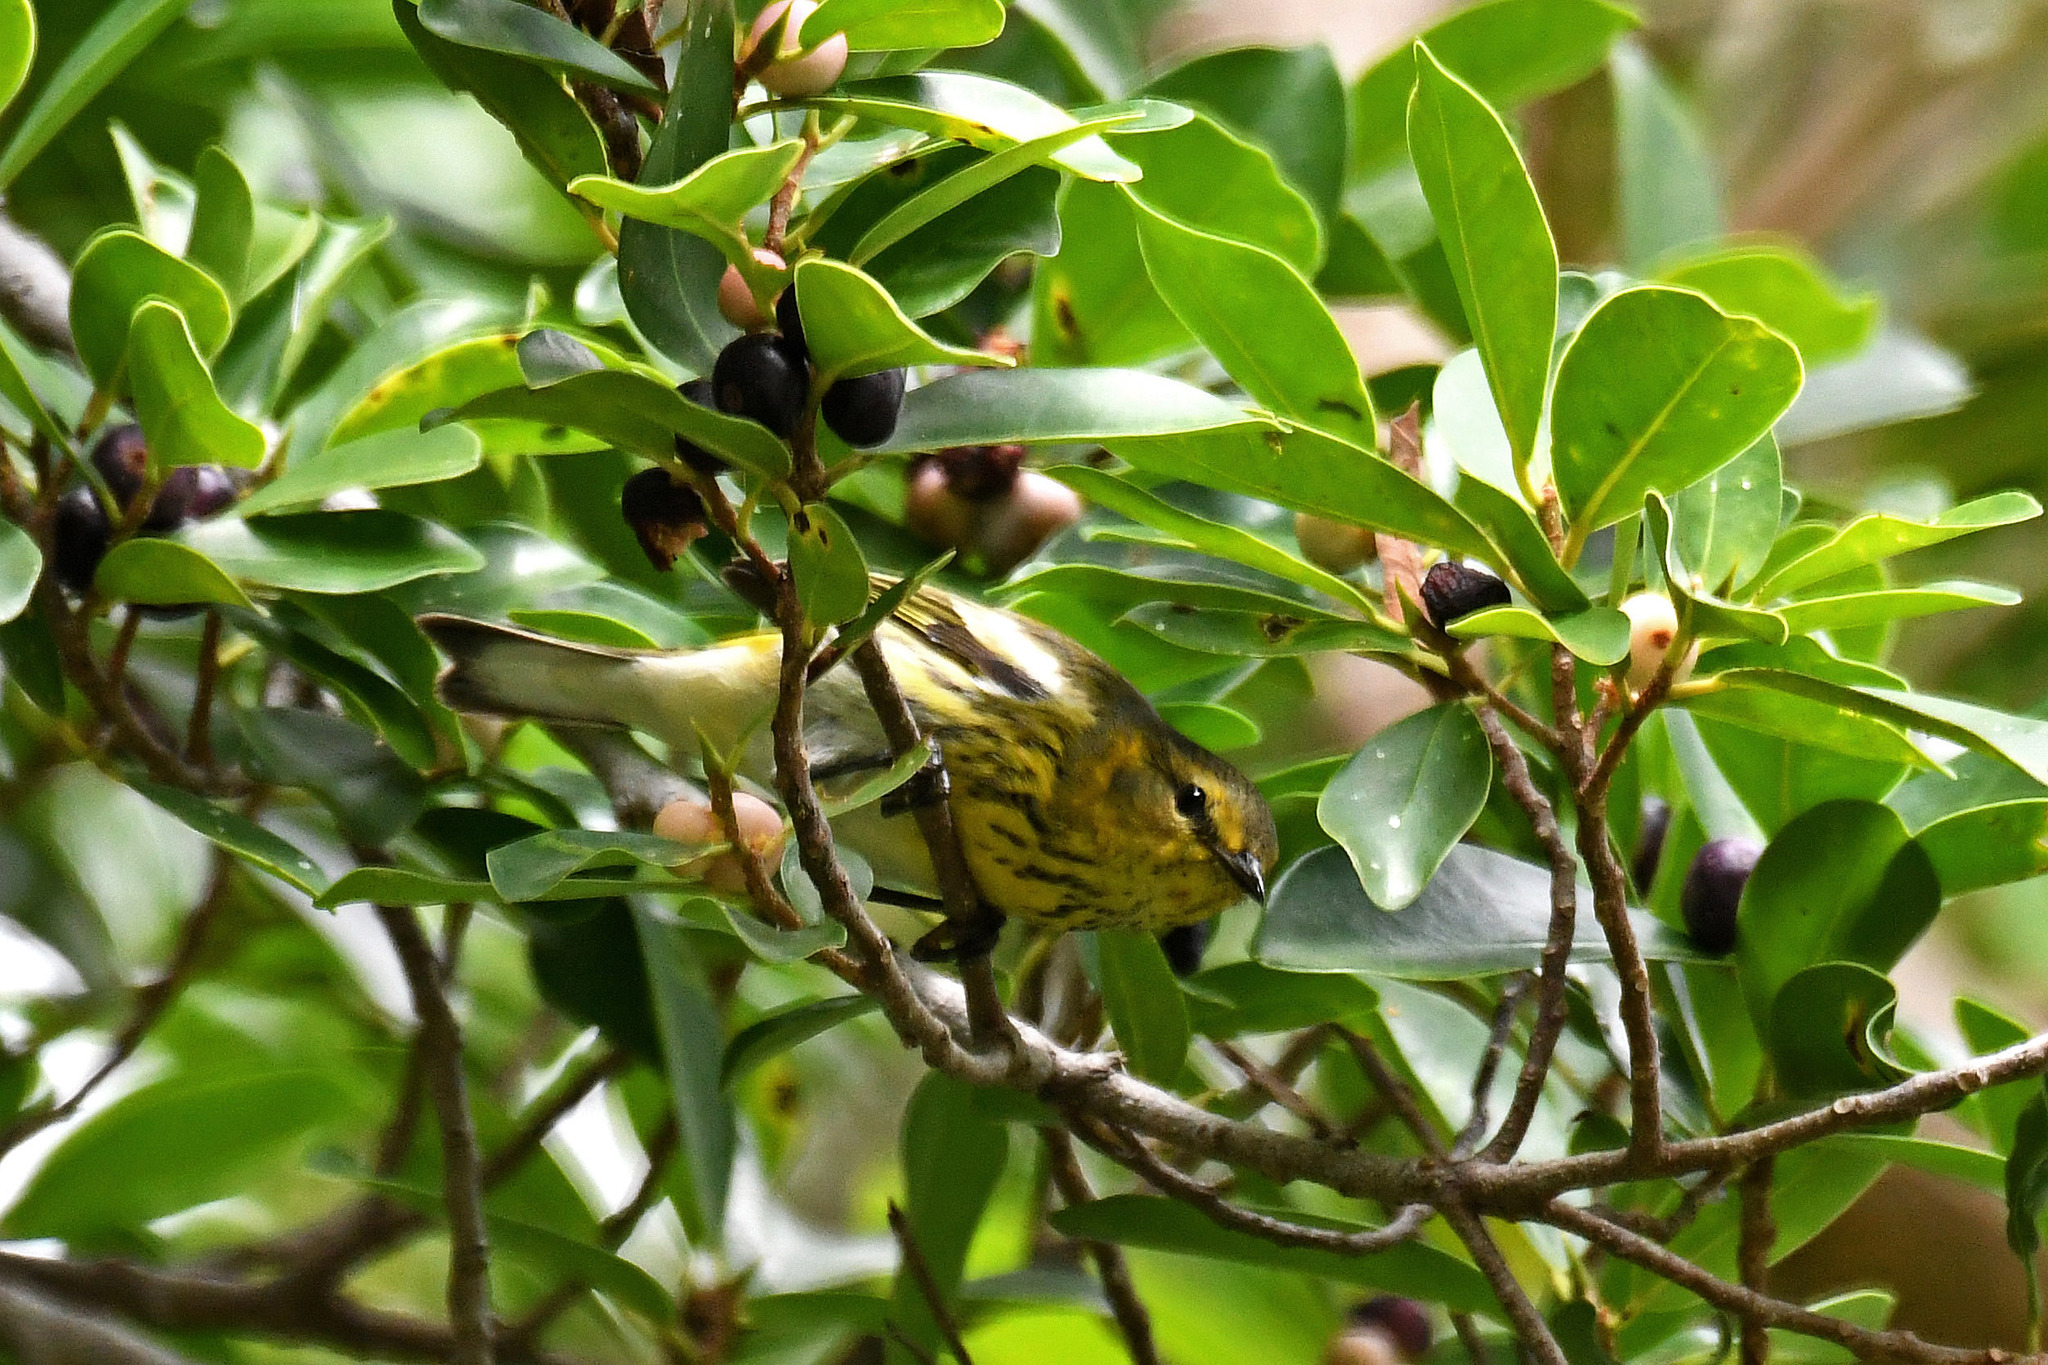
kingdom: Animalia
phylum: Chordata
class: Aves
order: Passeriformes
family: Parulidae
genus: Setophaga
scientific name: Setophaga tigrina
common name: Cape may warbler
